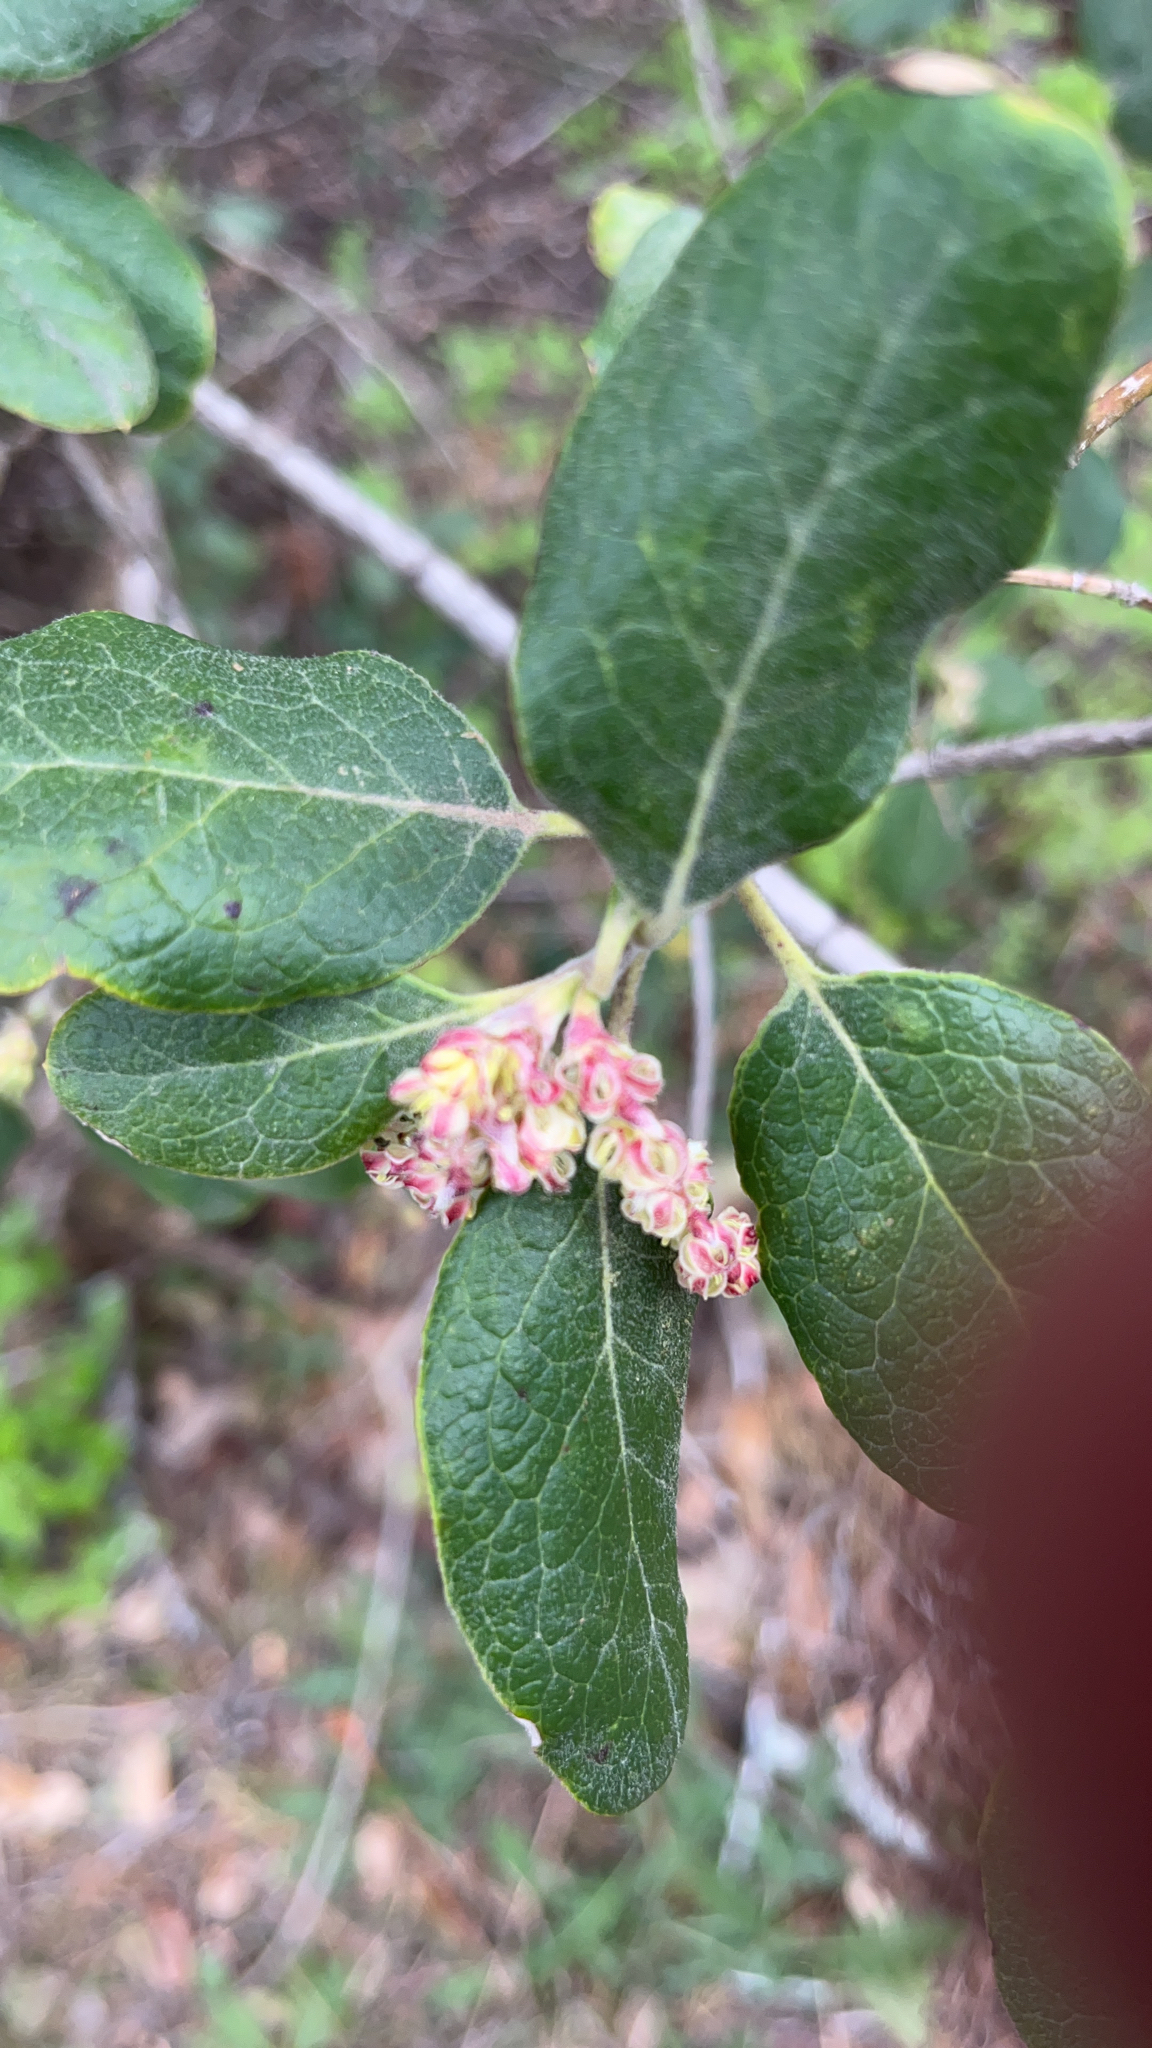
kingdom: Plantae
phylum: Tracheophyta
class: Magnoliopsida
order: Garryales
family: Garryaceae
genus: Garrya
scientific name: Garrya lindheimeri
